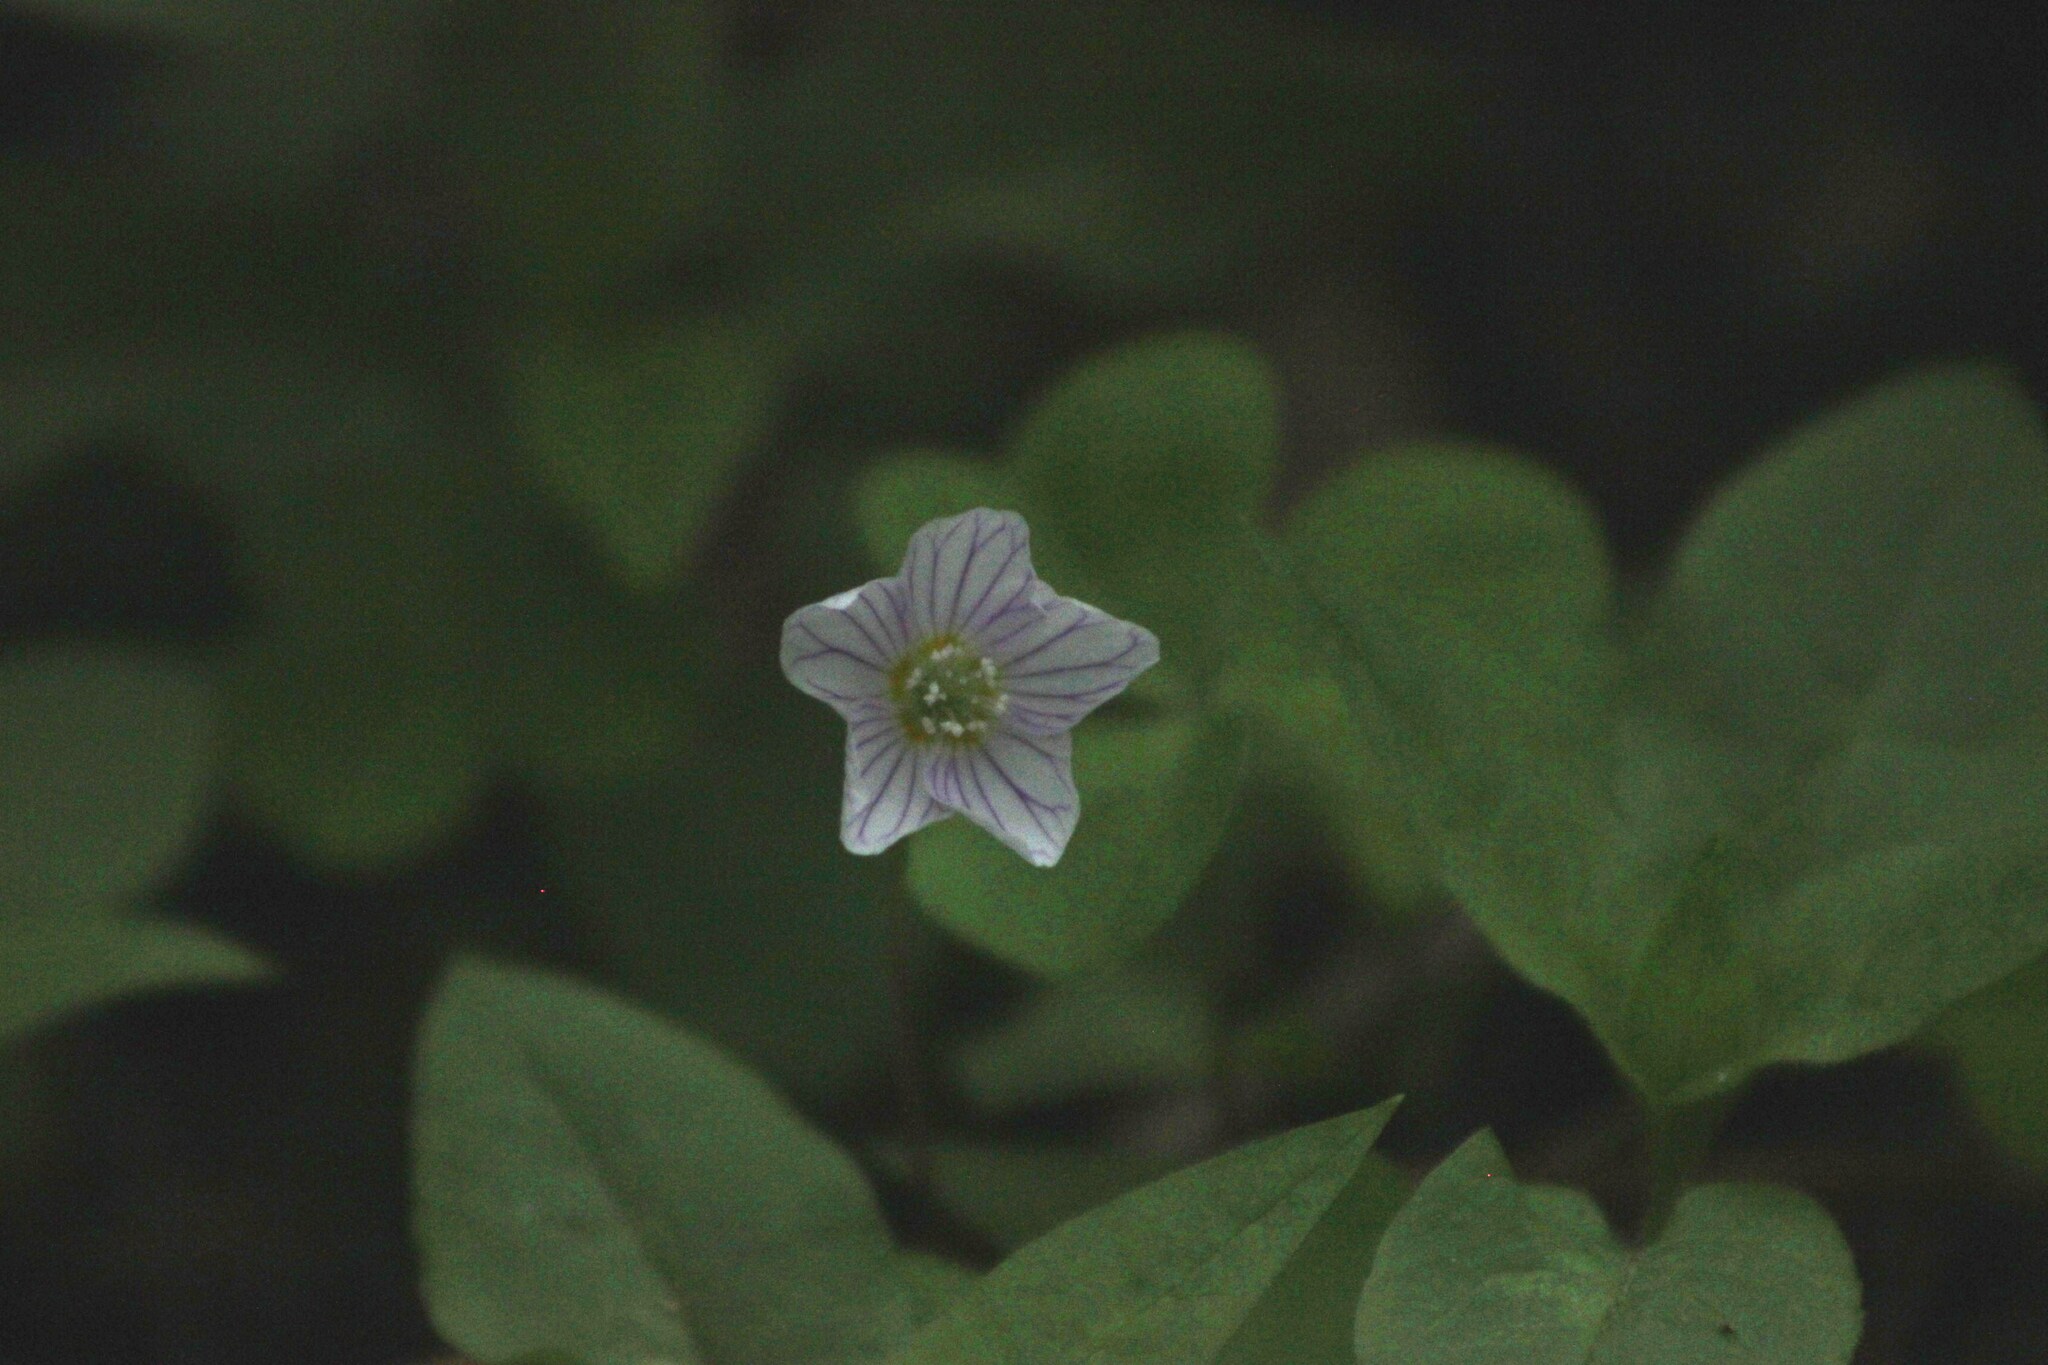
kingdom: Plantae
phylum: Tracheophyta
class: Magnoliopsida
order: Oxalidales
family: Oxalidaceae
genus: Oxalis
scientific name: Oxalis acetosella
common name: Wood-sorrel
